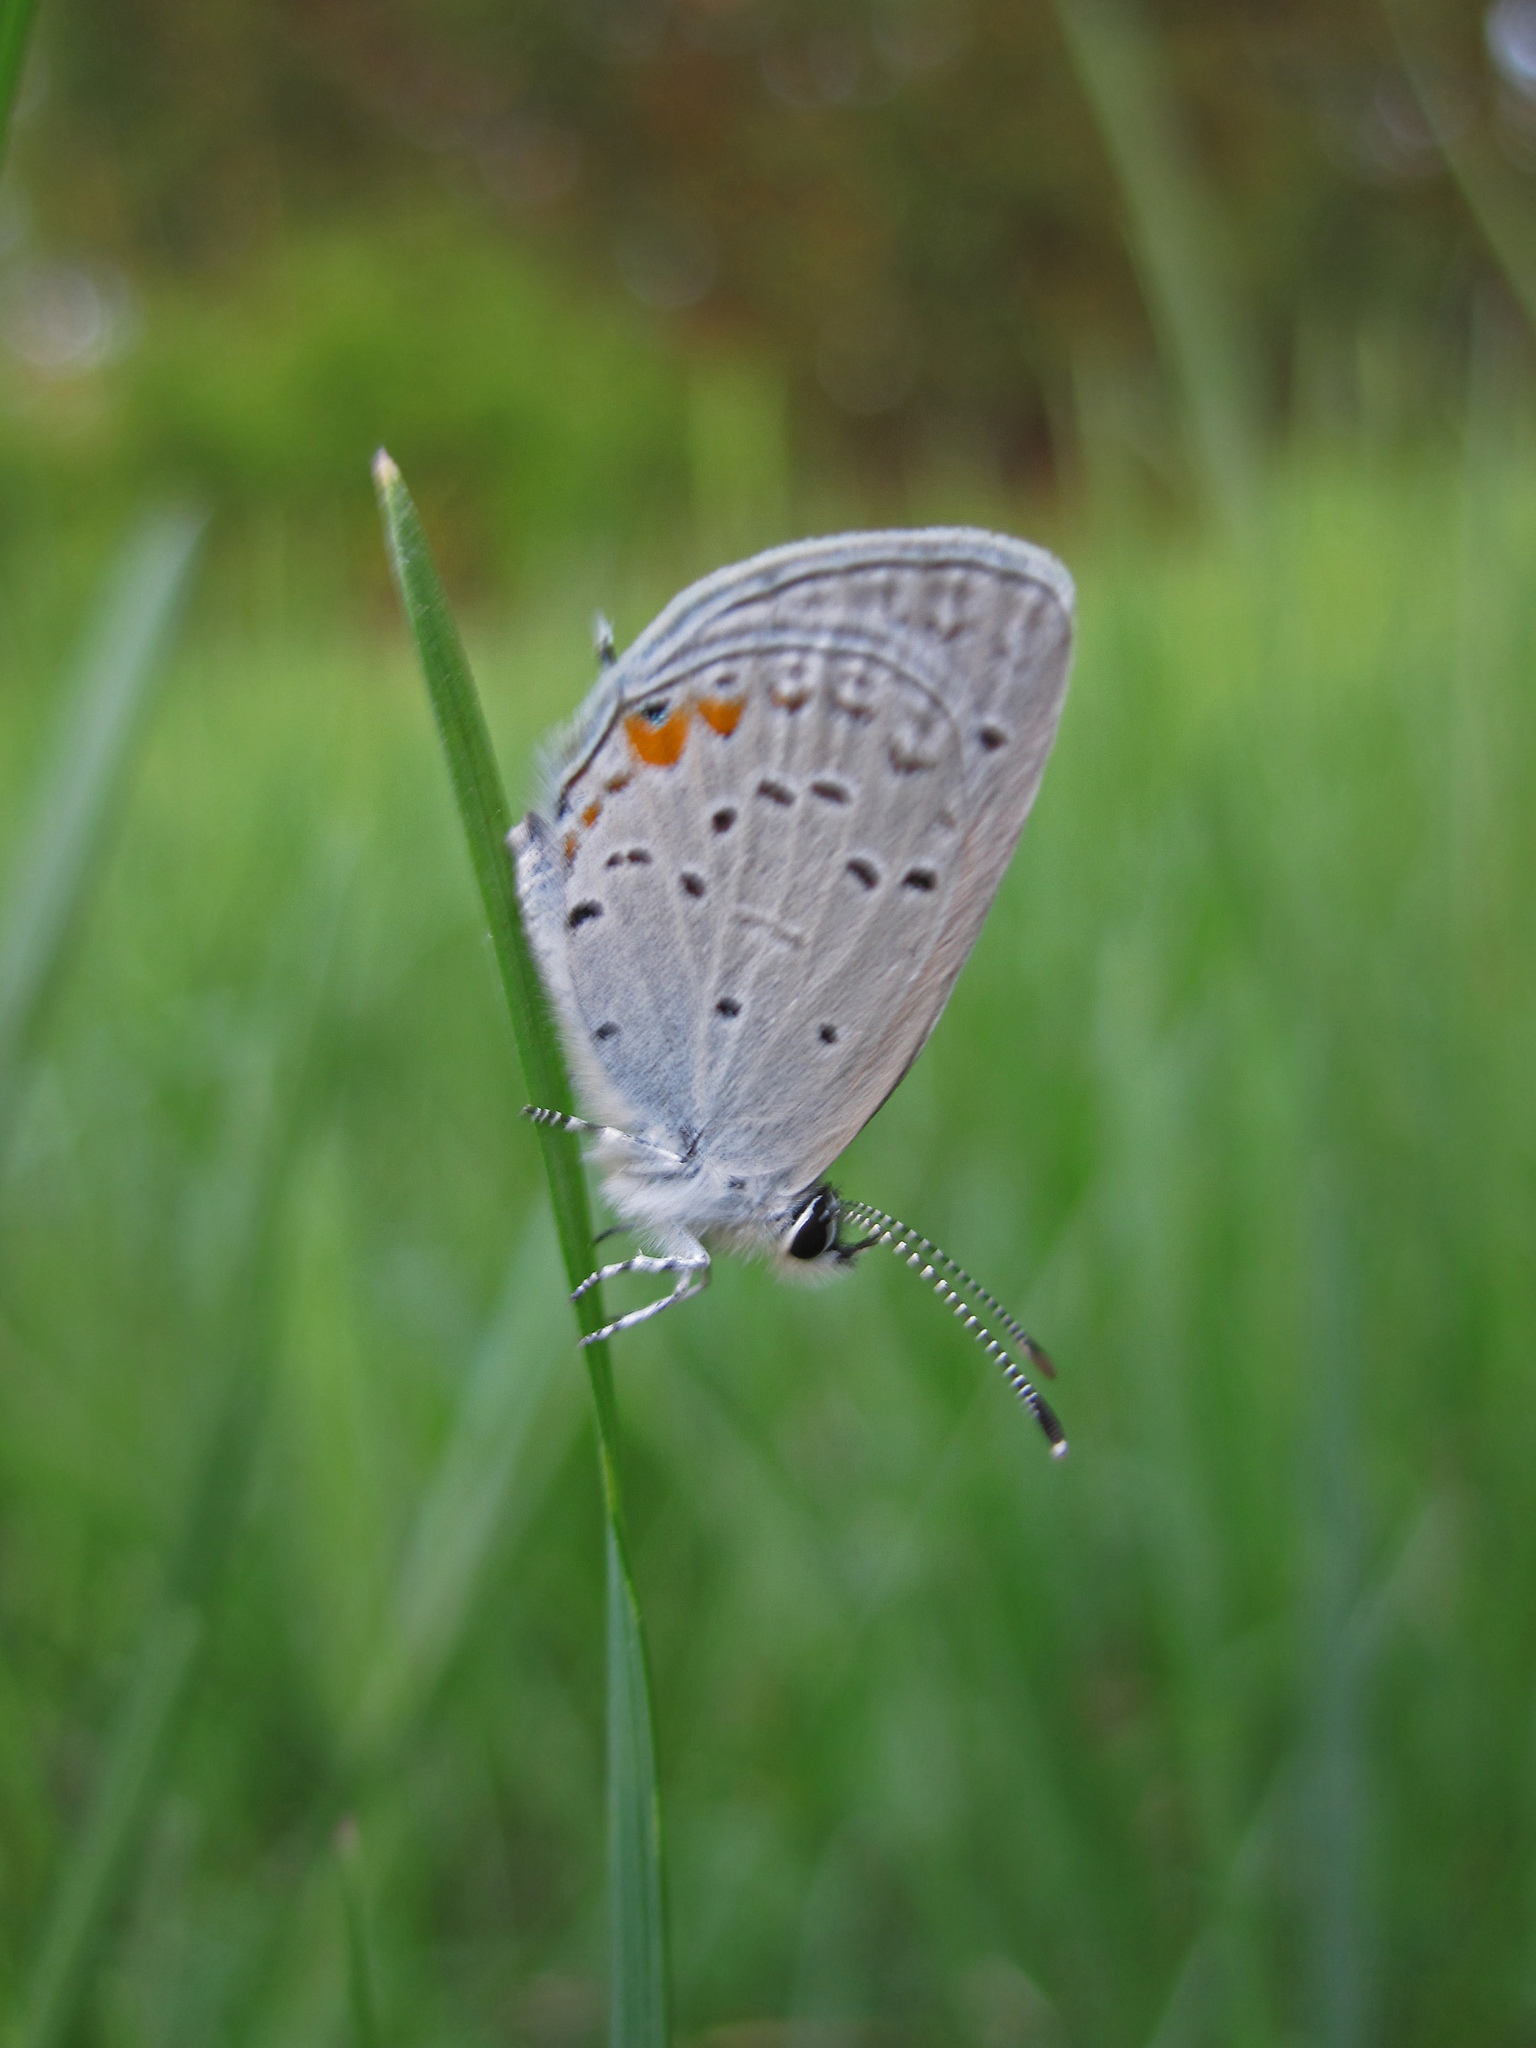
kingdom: Animalia
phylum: Arthropoda
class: Insecta
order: Lepidoptera
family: Lycaenidae
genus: Elkalyce
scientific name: Elkalyce comyntas
